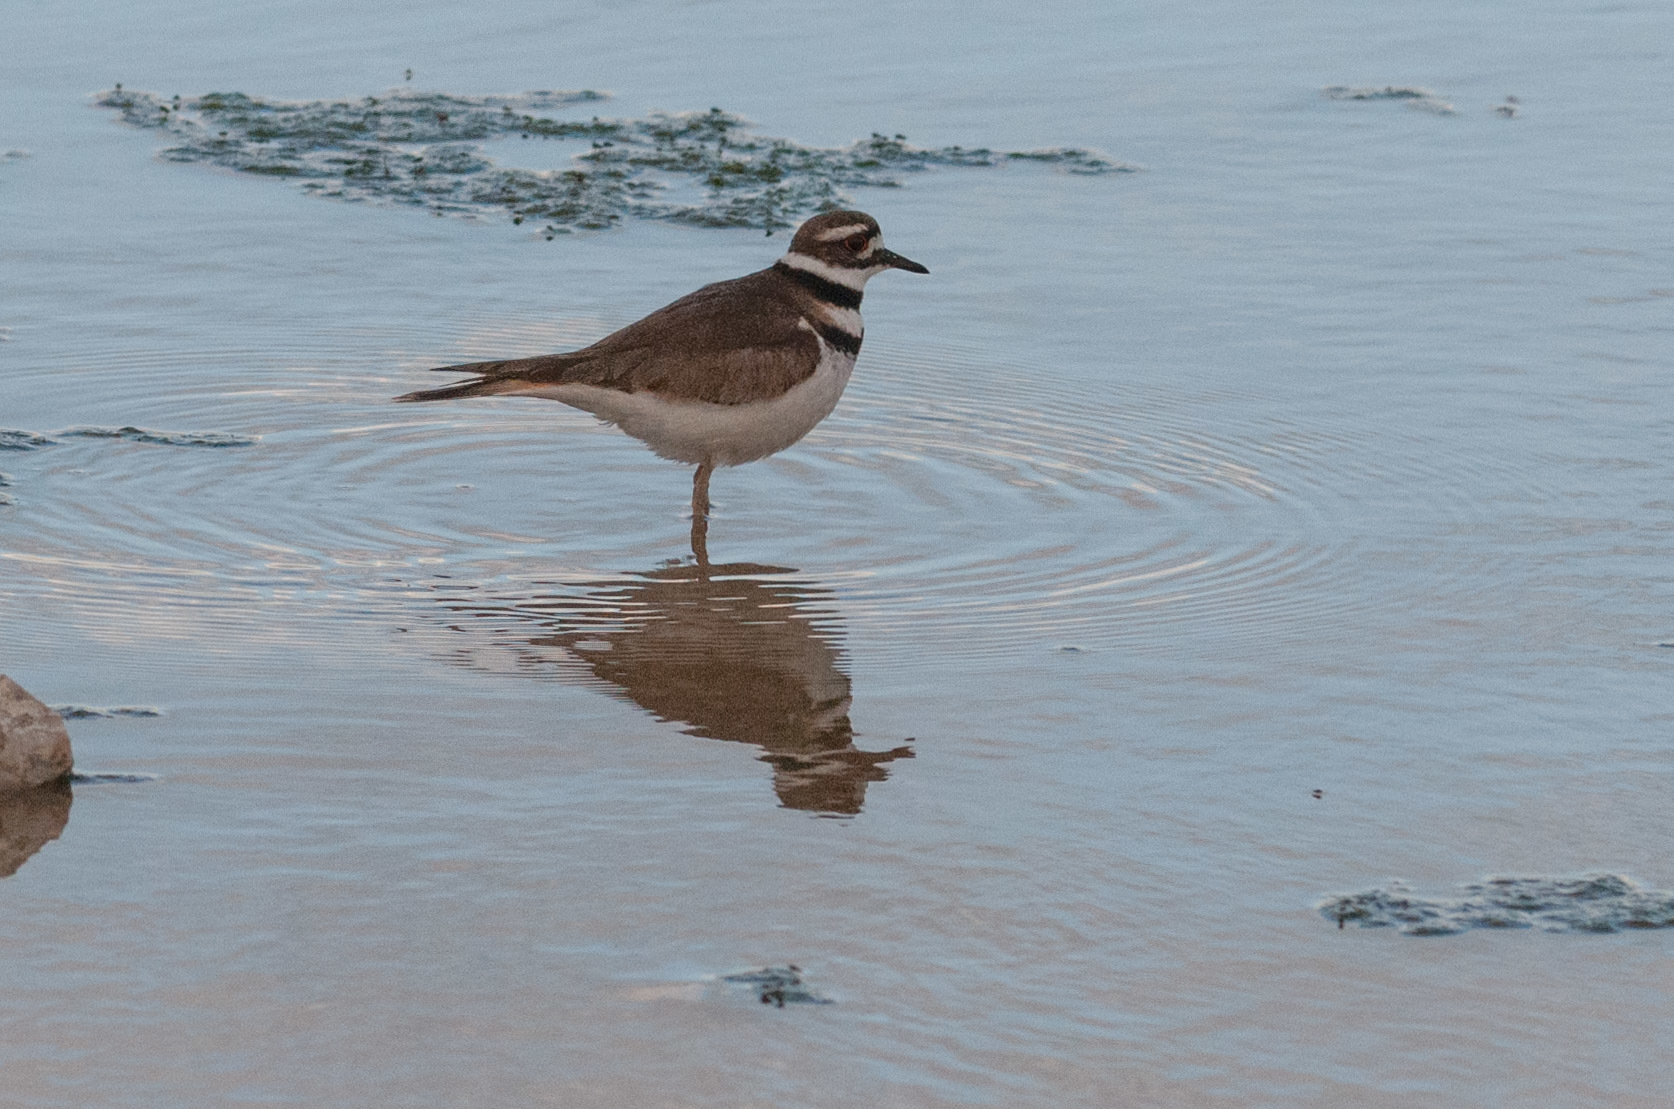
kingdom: Animalia
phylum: Chordata
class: Aves
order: Charadriiformes
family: Charadriidae
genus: Charadrius
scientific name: Charadrius vociferus
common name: Killdeer
